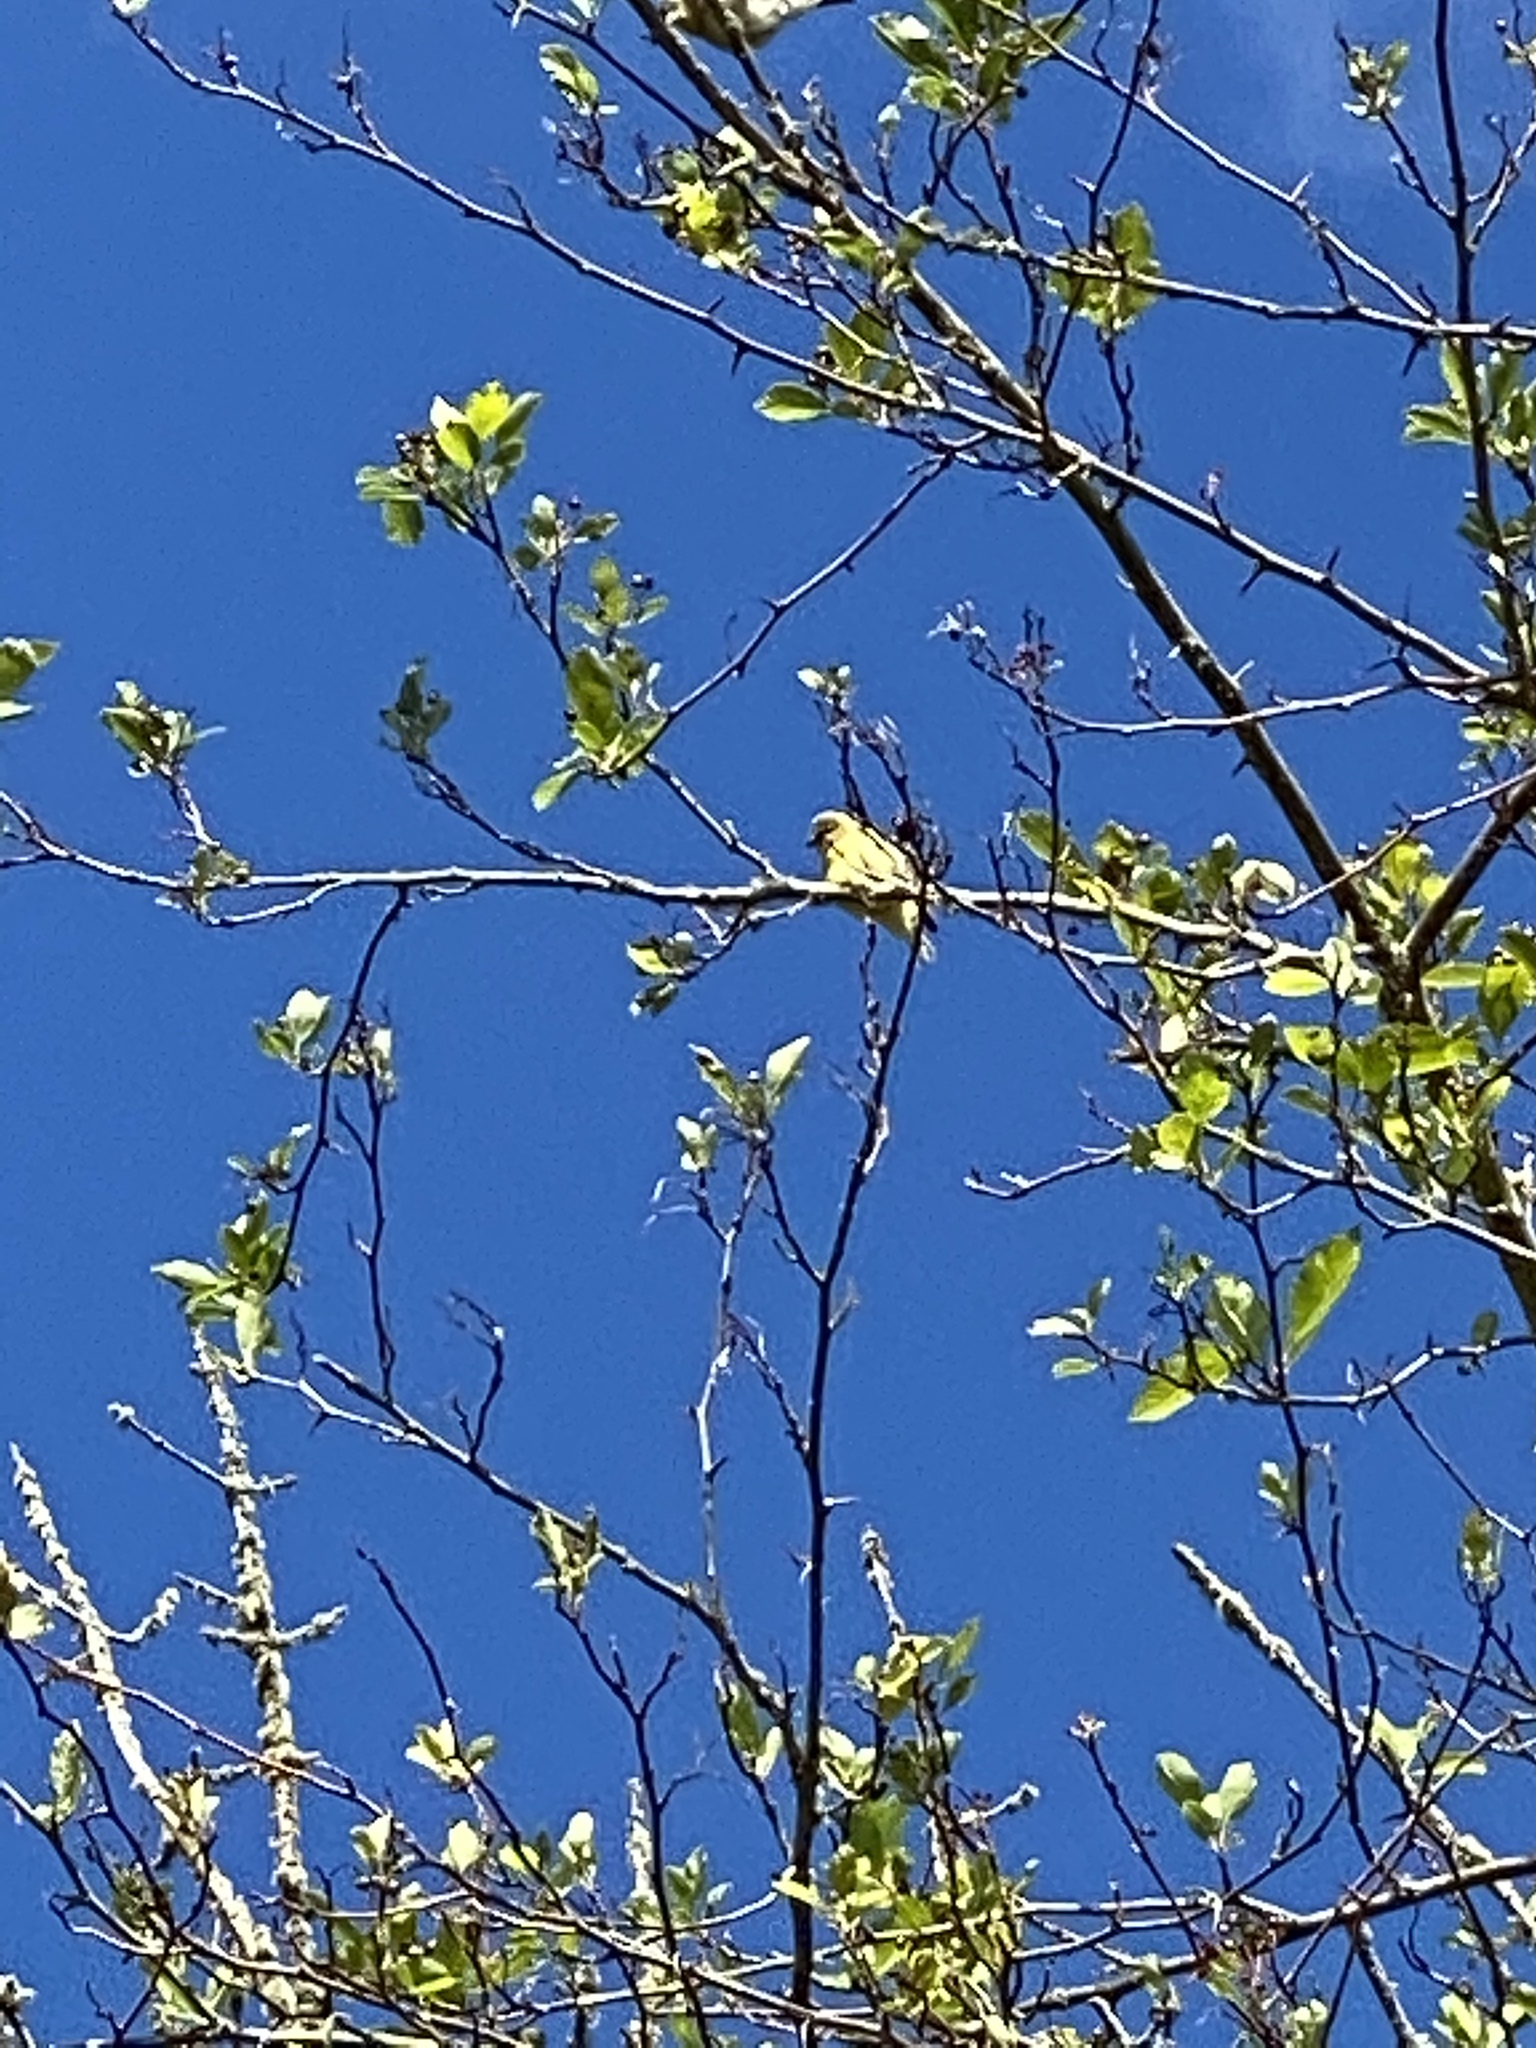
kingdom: Animalia
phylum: Chordata
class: Aves
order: Passeriformes
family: Fringillidae
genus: Spinus
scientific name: Spinus tristis
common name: American goldfinch
